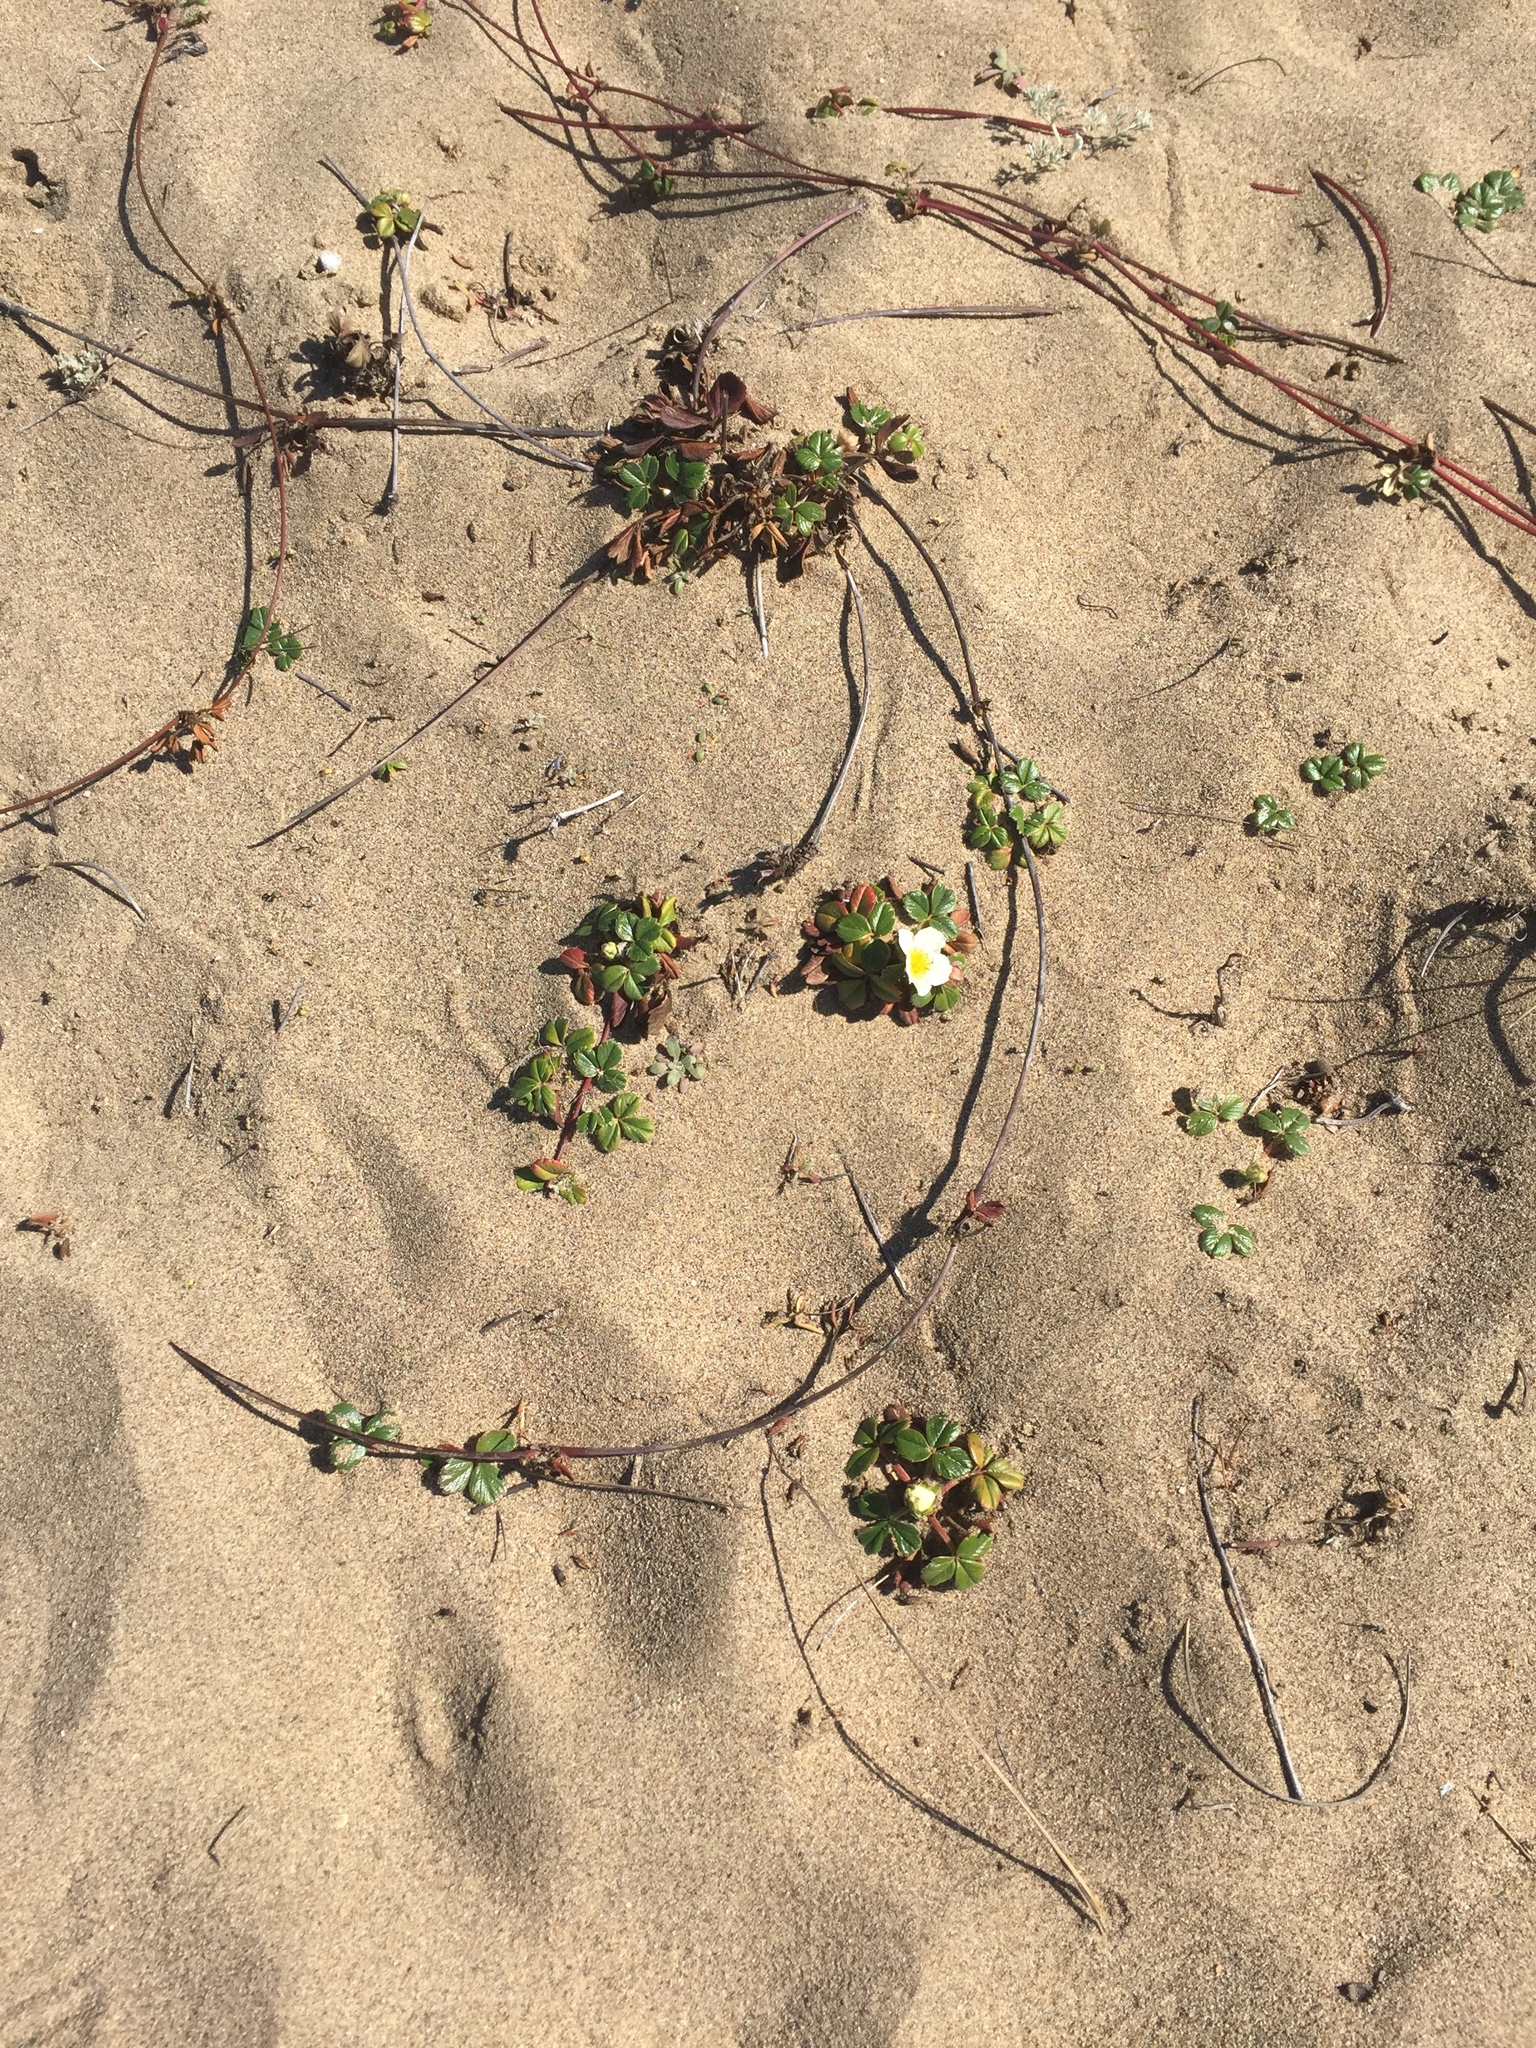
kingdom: Plantae
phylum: Tracheophyta
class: Magnoliopsida
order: Rosales
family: Rosaceae
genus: Fragaria
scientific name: Fragaria chiloensis
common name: Beach strawberry
